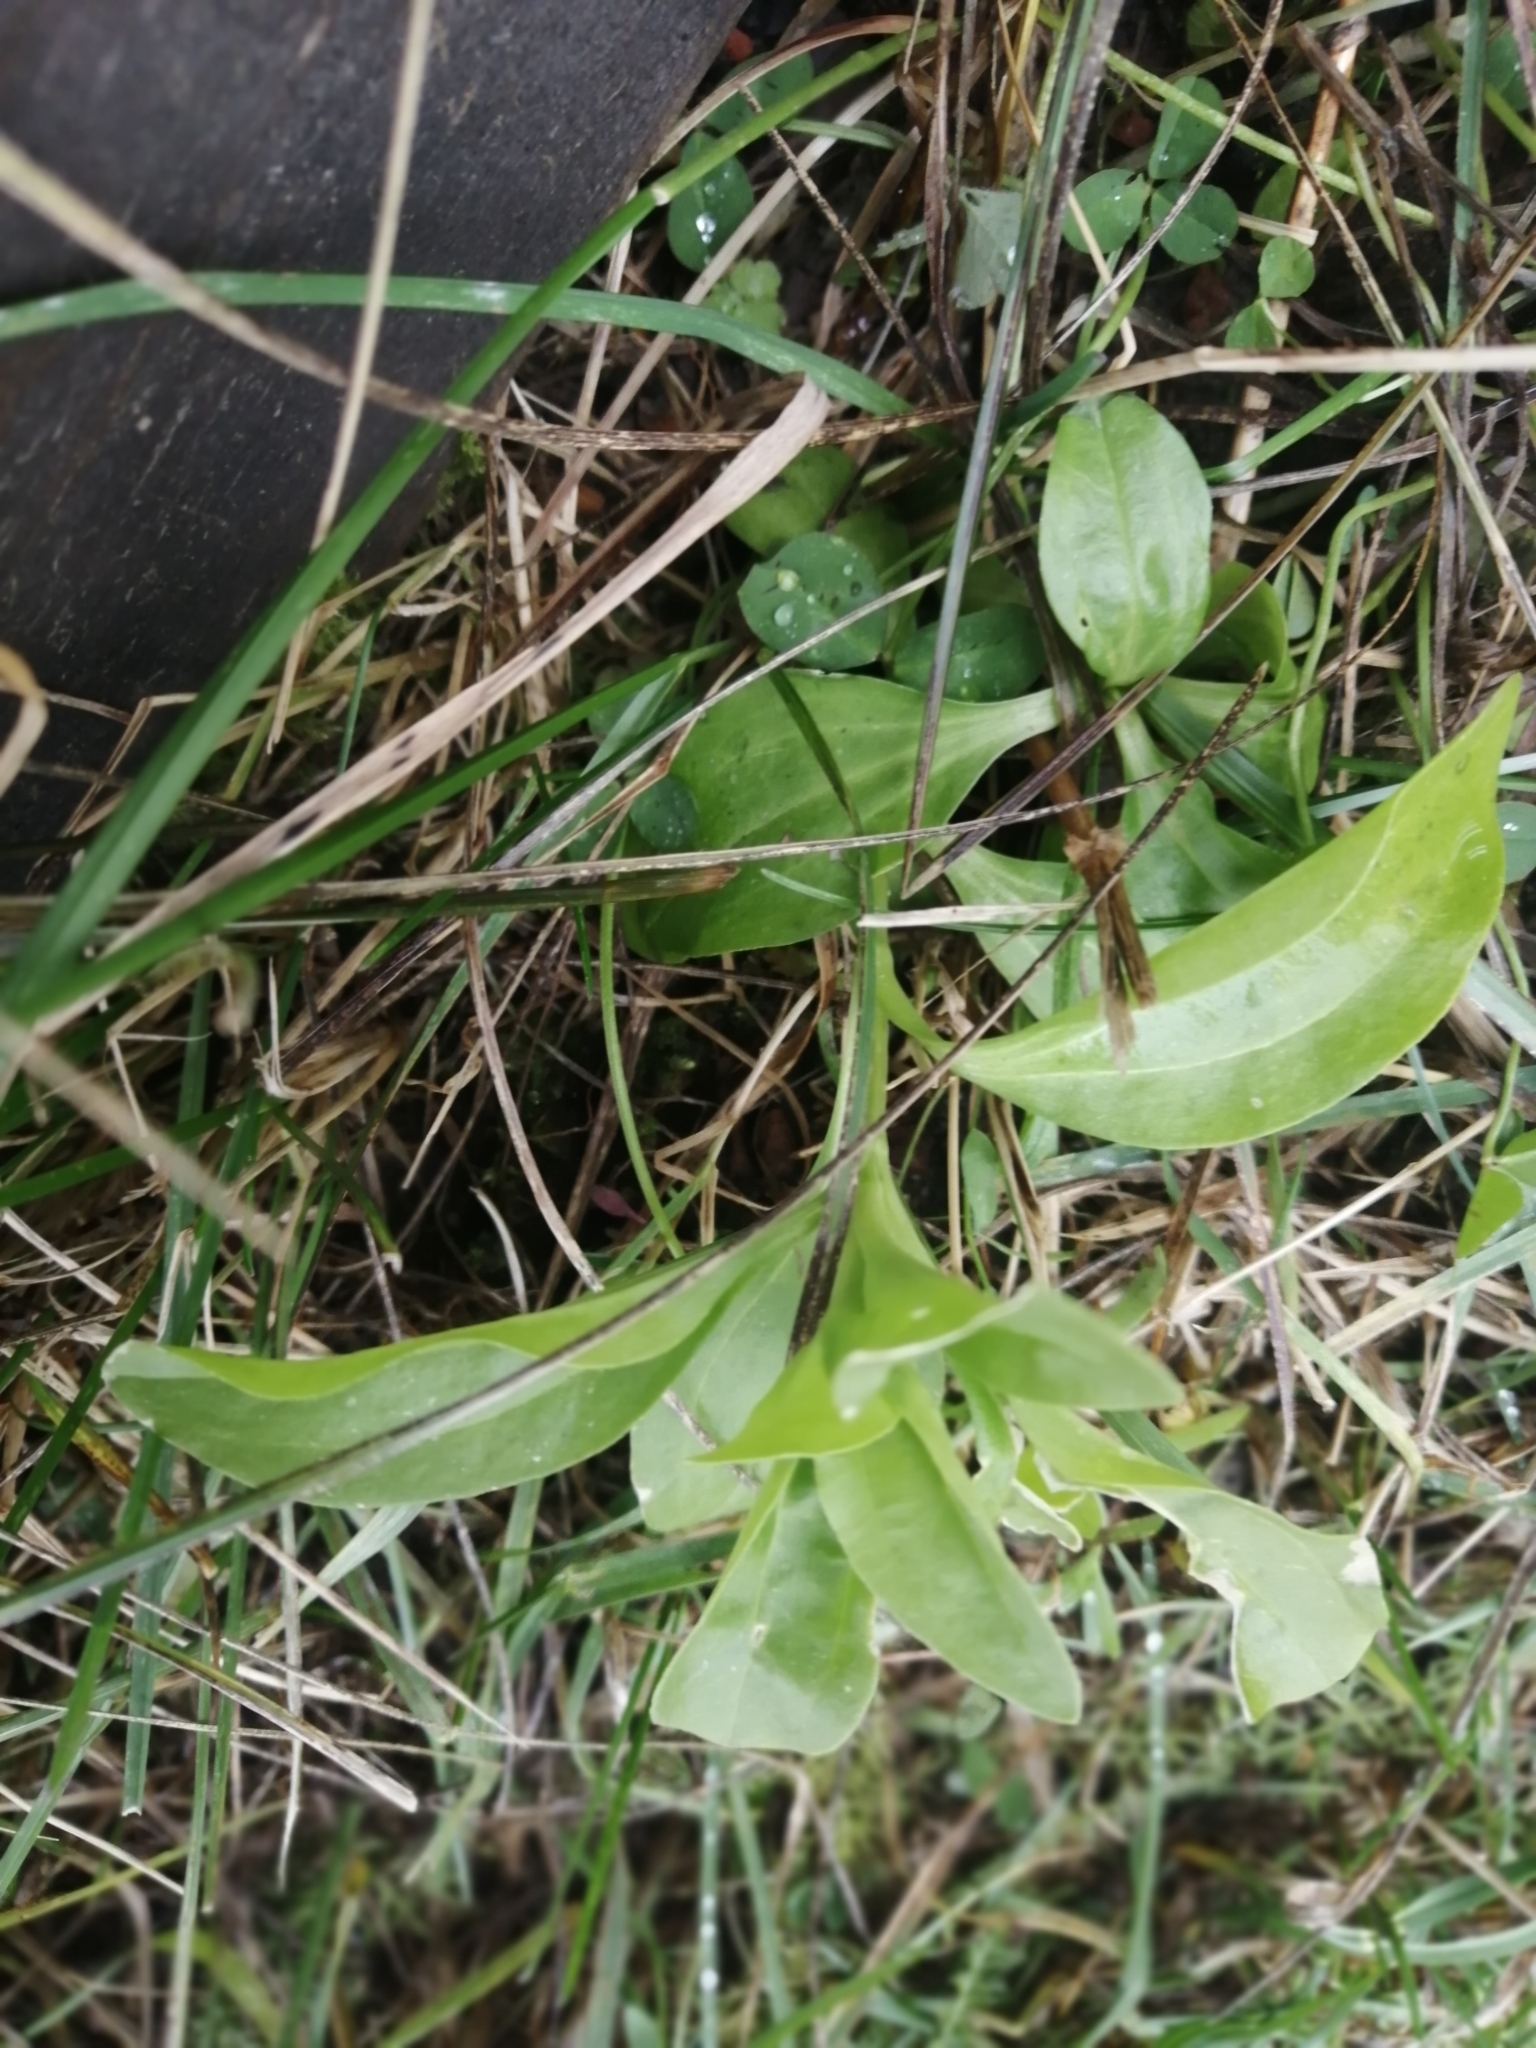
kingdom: Plantae
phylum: Tracheophyta
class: Magnoliopsida
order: Caryophyllales
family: Caryophyllaceae
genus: Saponaria
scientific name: Saponaria officinalis
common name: Soapwort
